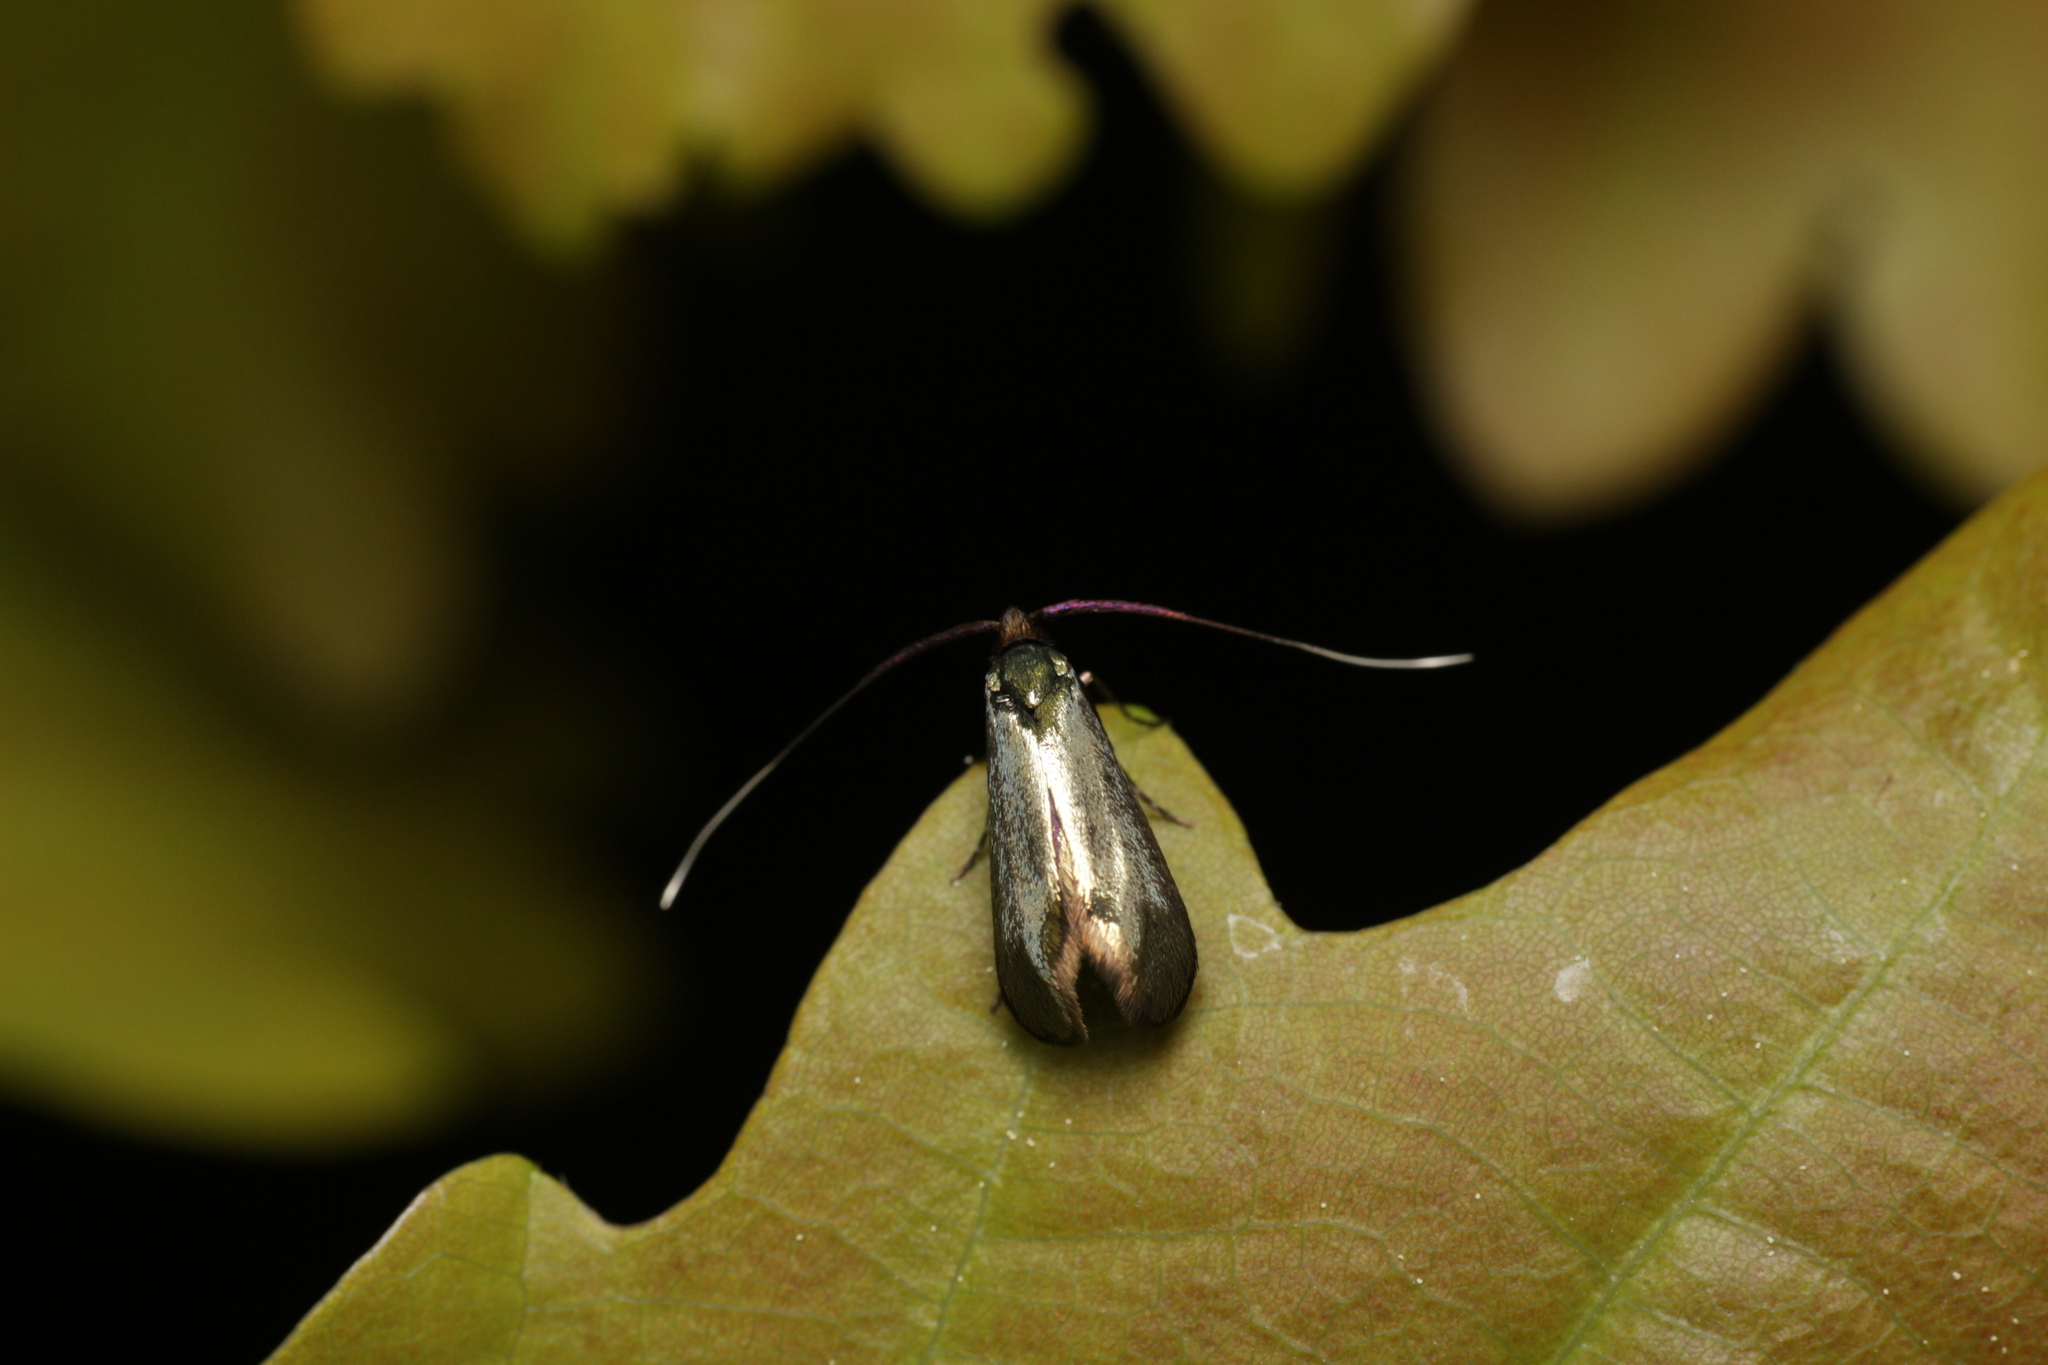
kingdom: Animalia
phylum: Arthropoda
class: Insecta
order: Lepidoptera
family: Adelidae
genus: Adela
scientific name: Adela viridella
